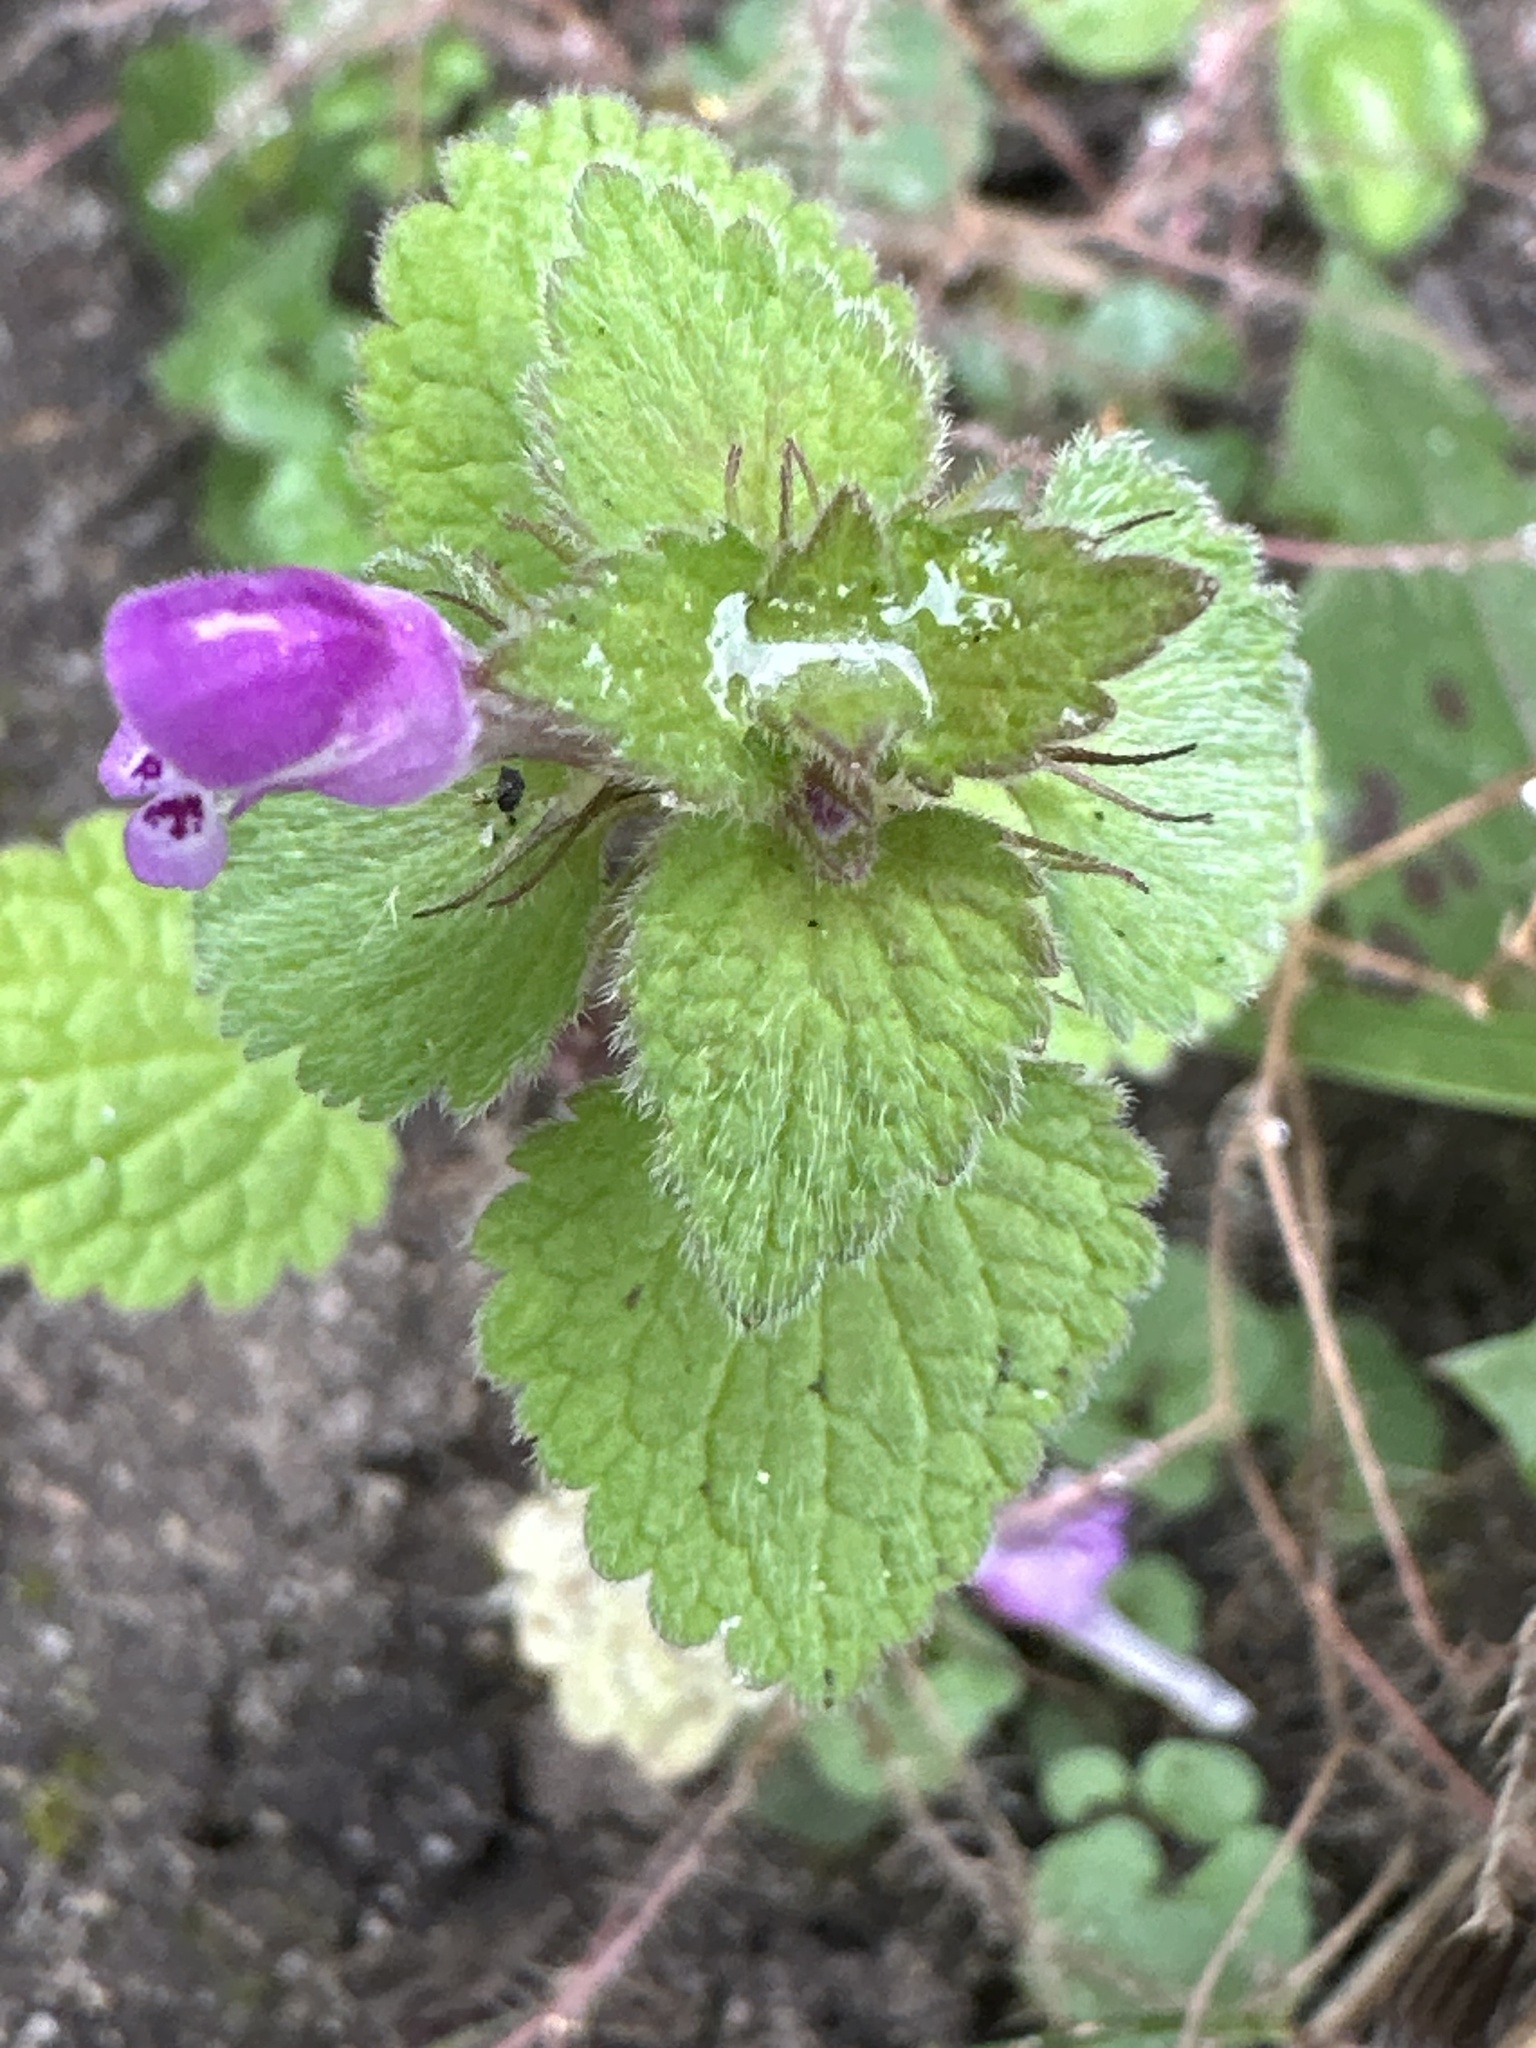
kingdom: Plantae
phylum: Tracheophyta
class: Magnoliopsida
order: Lamiales
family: Lamiaceae
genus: Lamium
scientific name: Lamium purpureum
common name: Red dead-nettle
